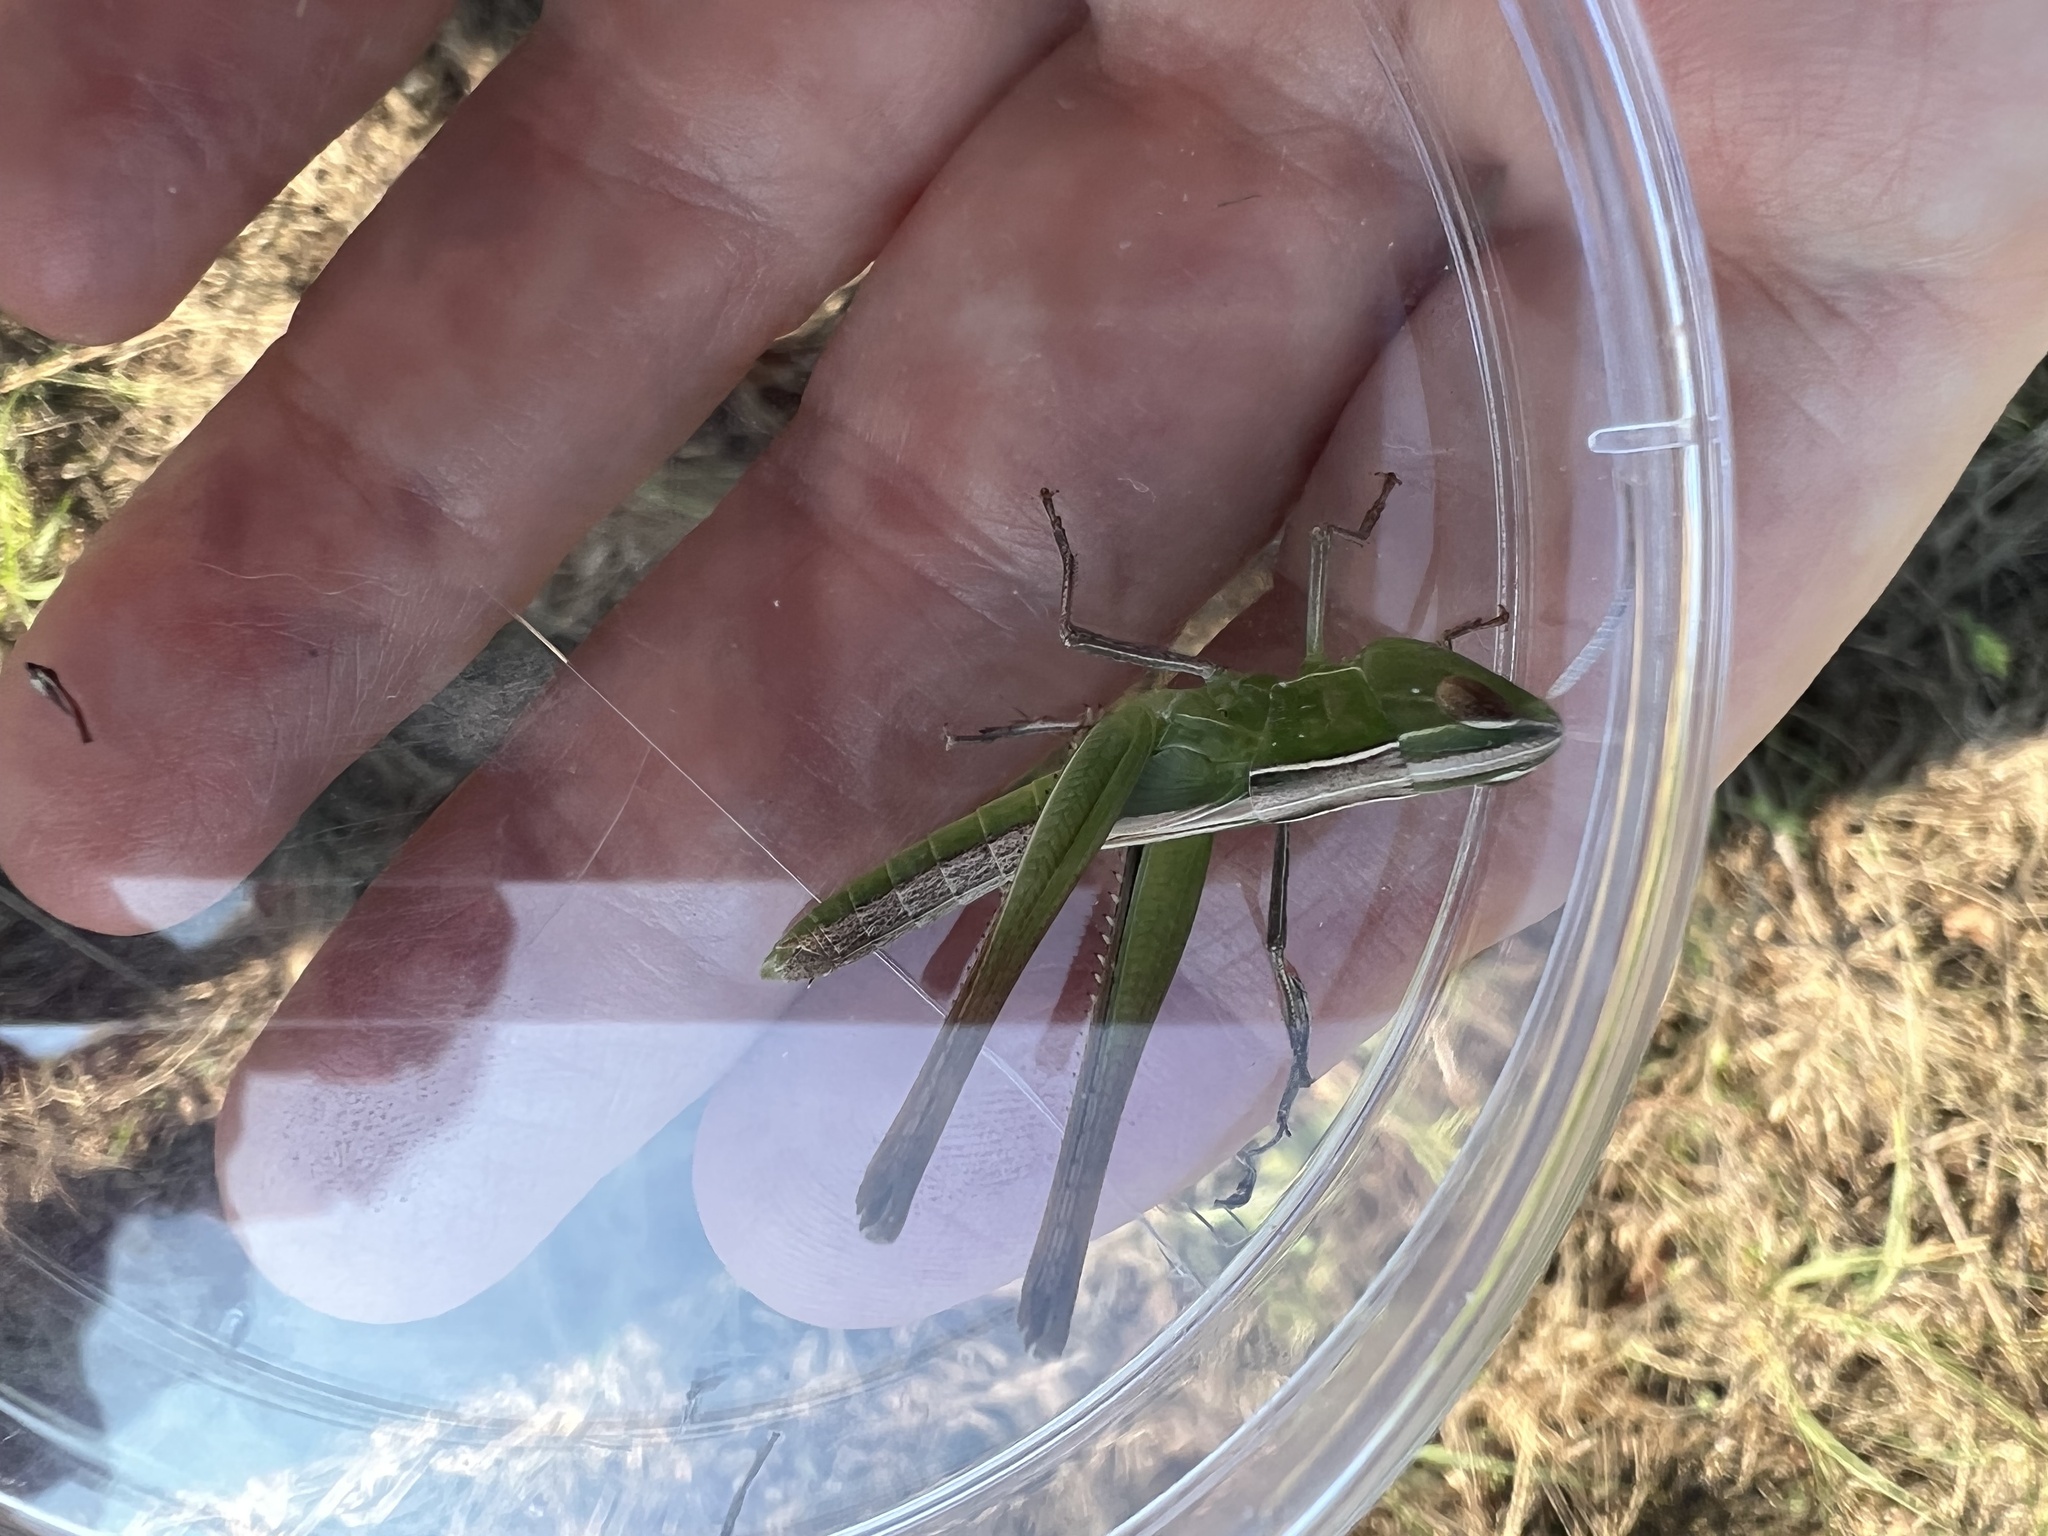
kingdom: Animalia
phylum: Arthropoda
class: Insecta
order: Orthoptera
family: Acrididae
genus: Syrbula
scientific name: Syrbula admirabilis
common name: Handsome grasshopper
